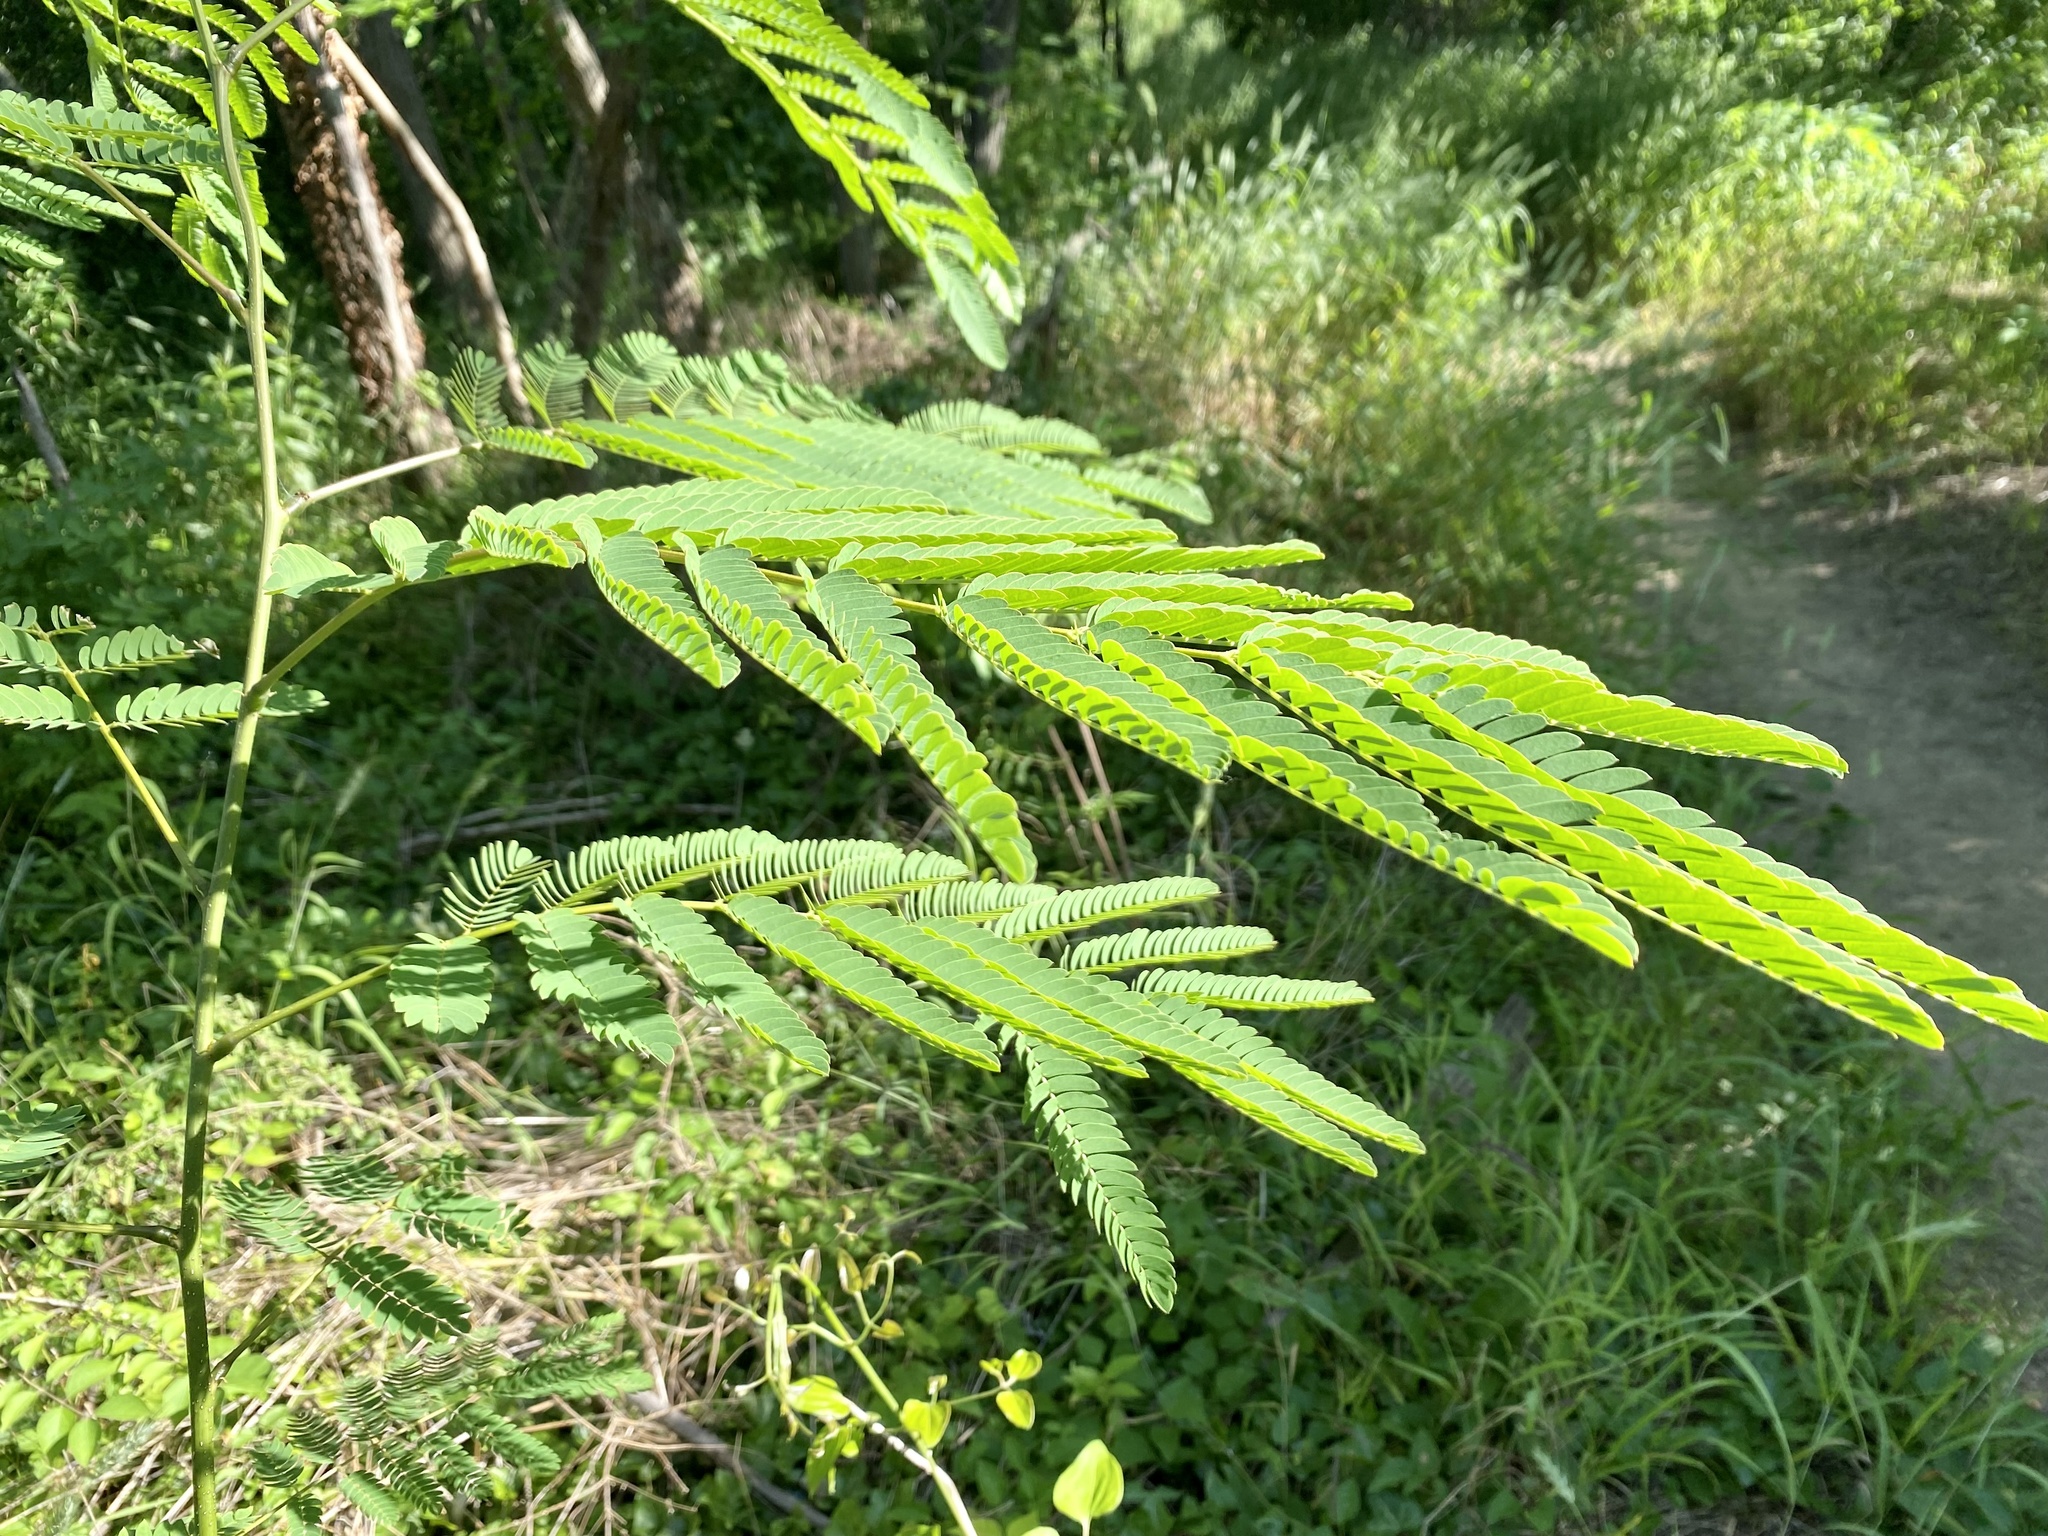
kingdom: Plantae
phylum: Tracheophyta
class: Magnoliopsida
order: Fabales
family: Fabaceae
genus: Albizia
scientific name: Albizia julibrissin
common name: Silktree
